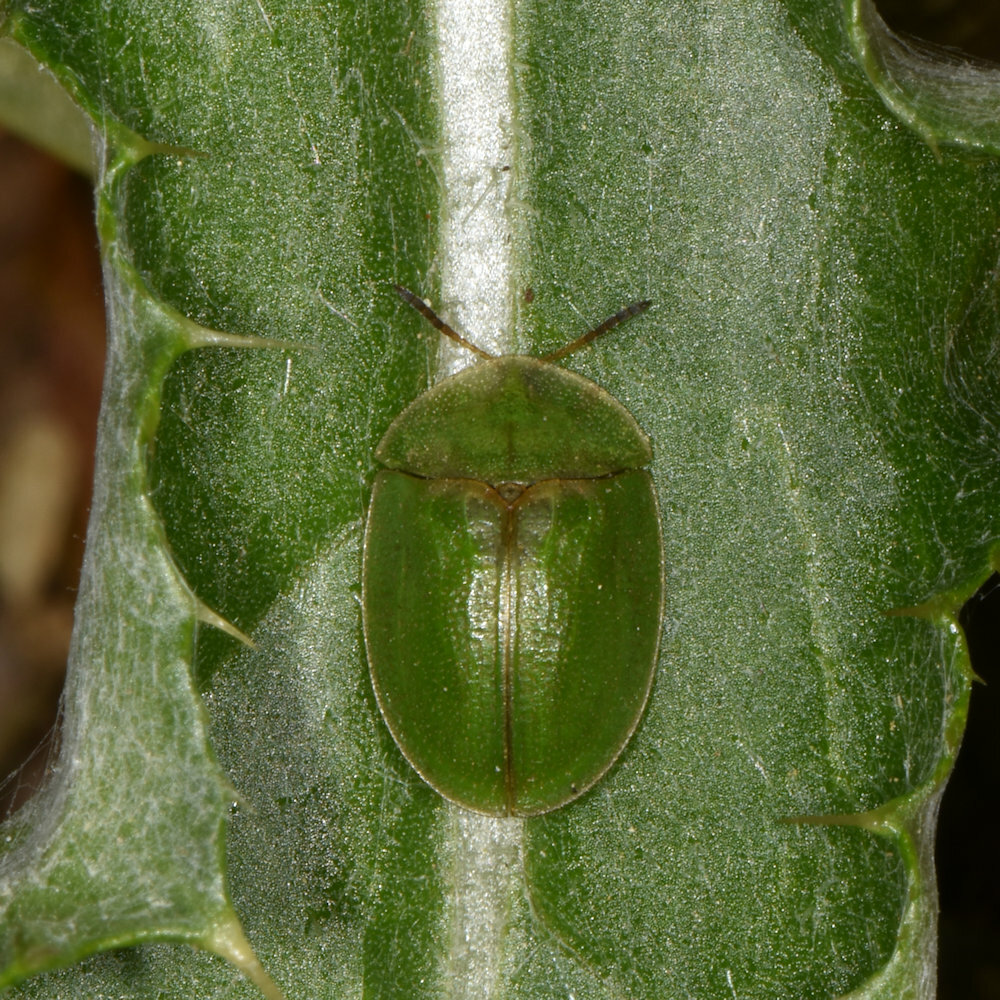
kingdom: Animalia
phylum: Arthropoda
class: Insecta
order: Coleoptera
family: Chrysomelidae
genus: Cassida
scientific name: Cassida rubiginosa
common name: Thistle tortoise beetle
